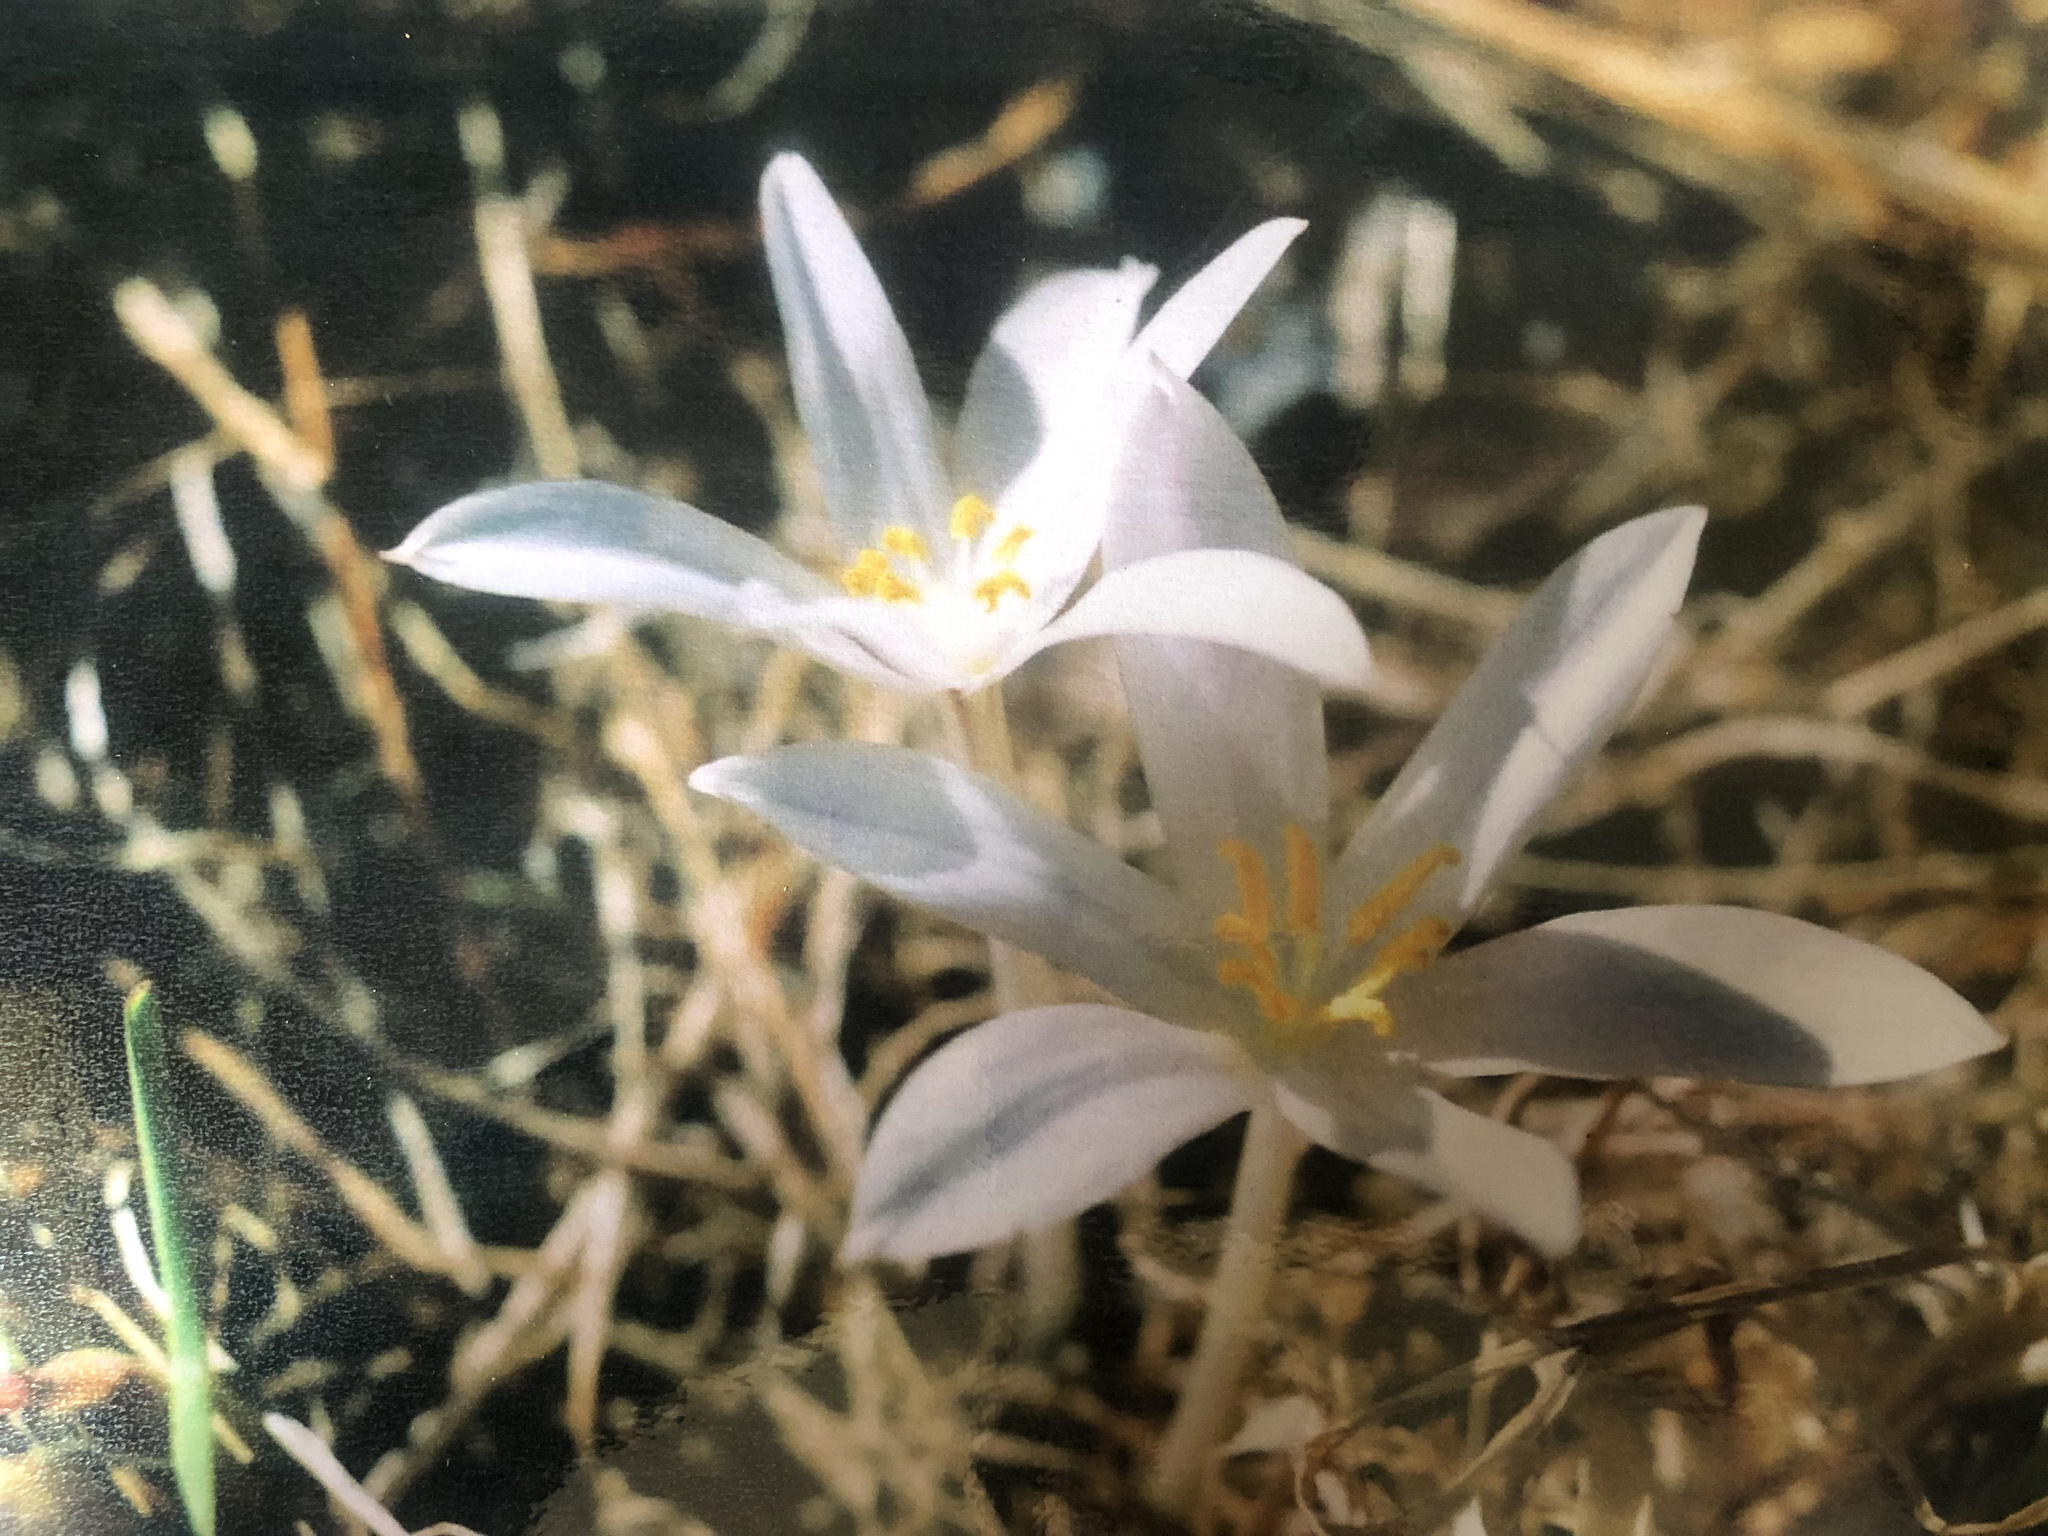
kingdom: Plantae
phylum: Tracheophyta
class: Liliopsida
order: Asparagales
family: Amaryllidaceae
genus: Gethyllis
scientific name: Gethyllis afra
